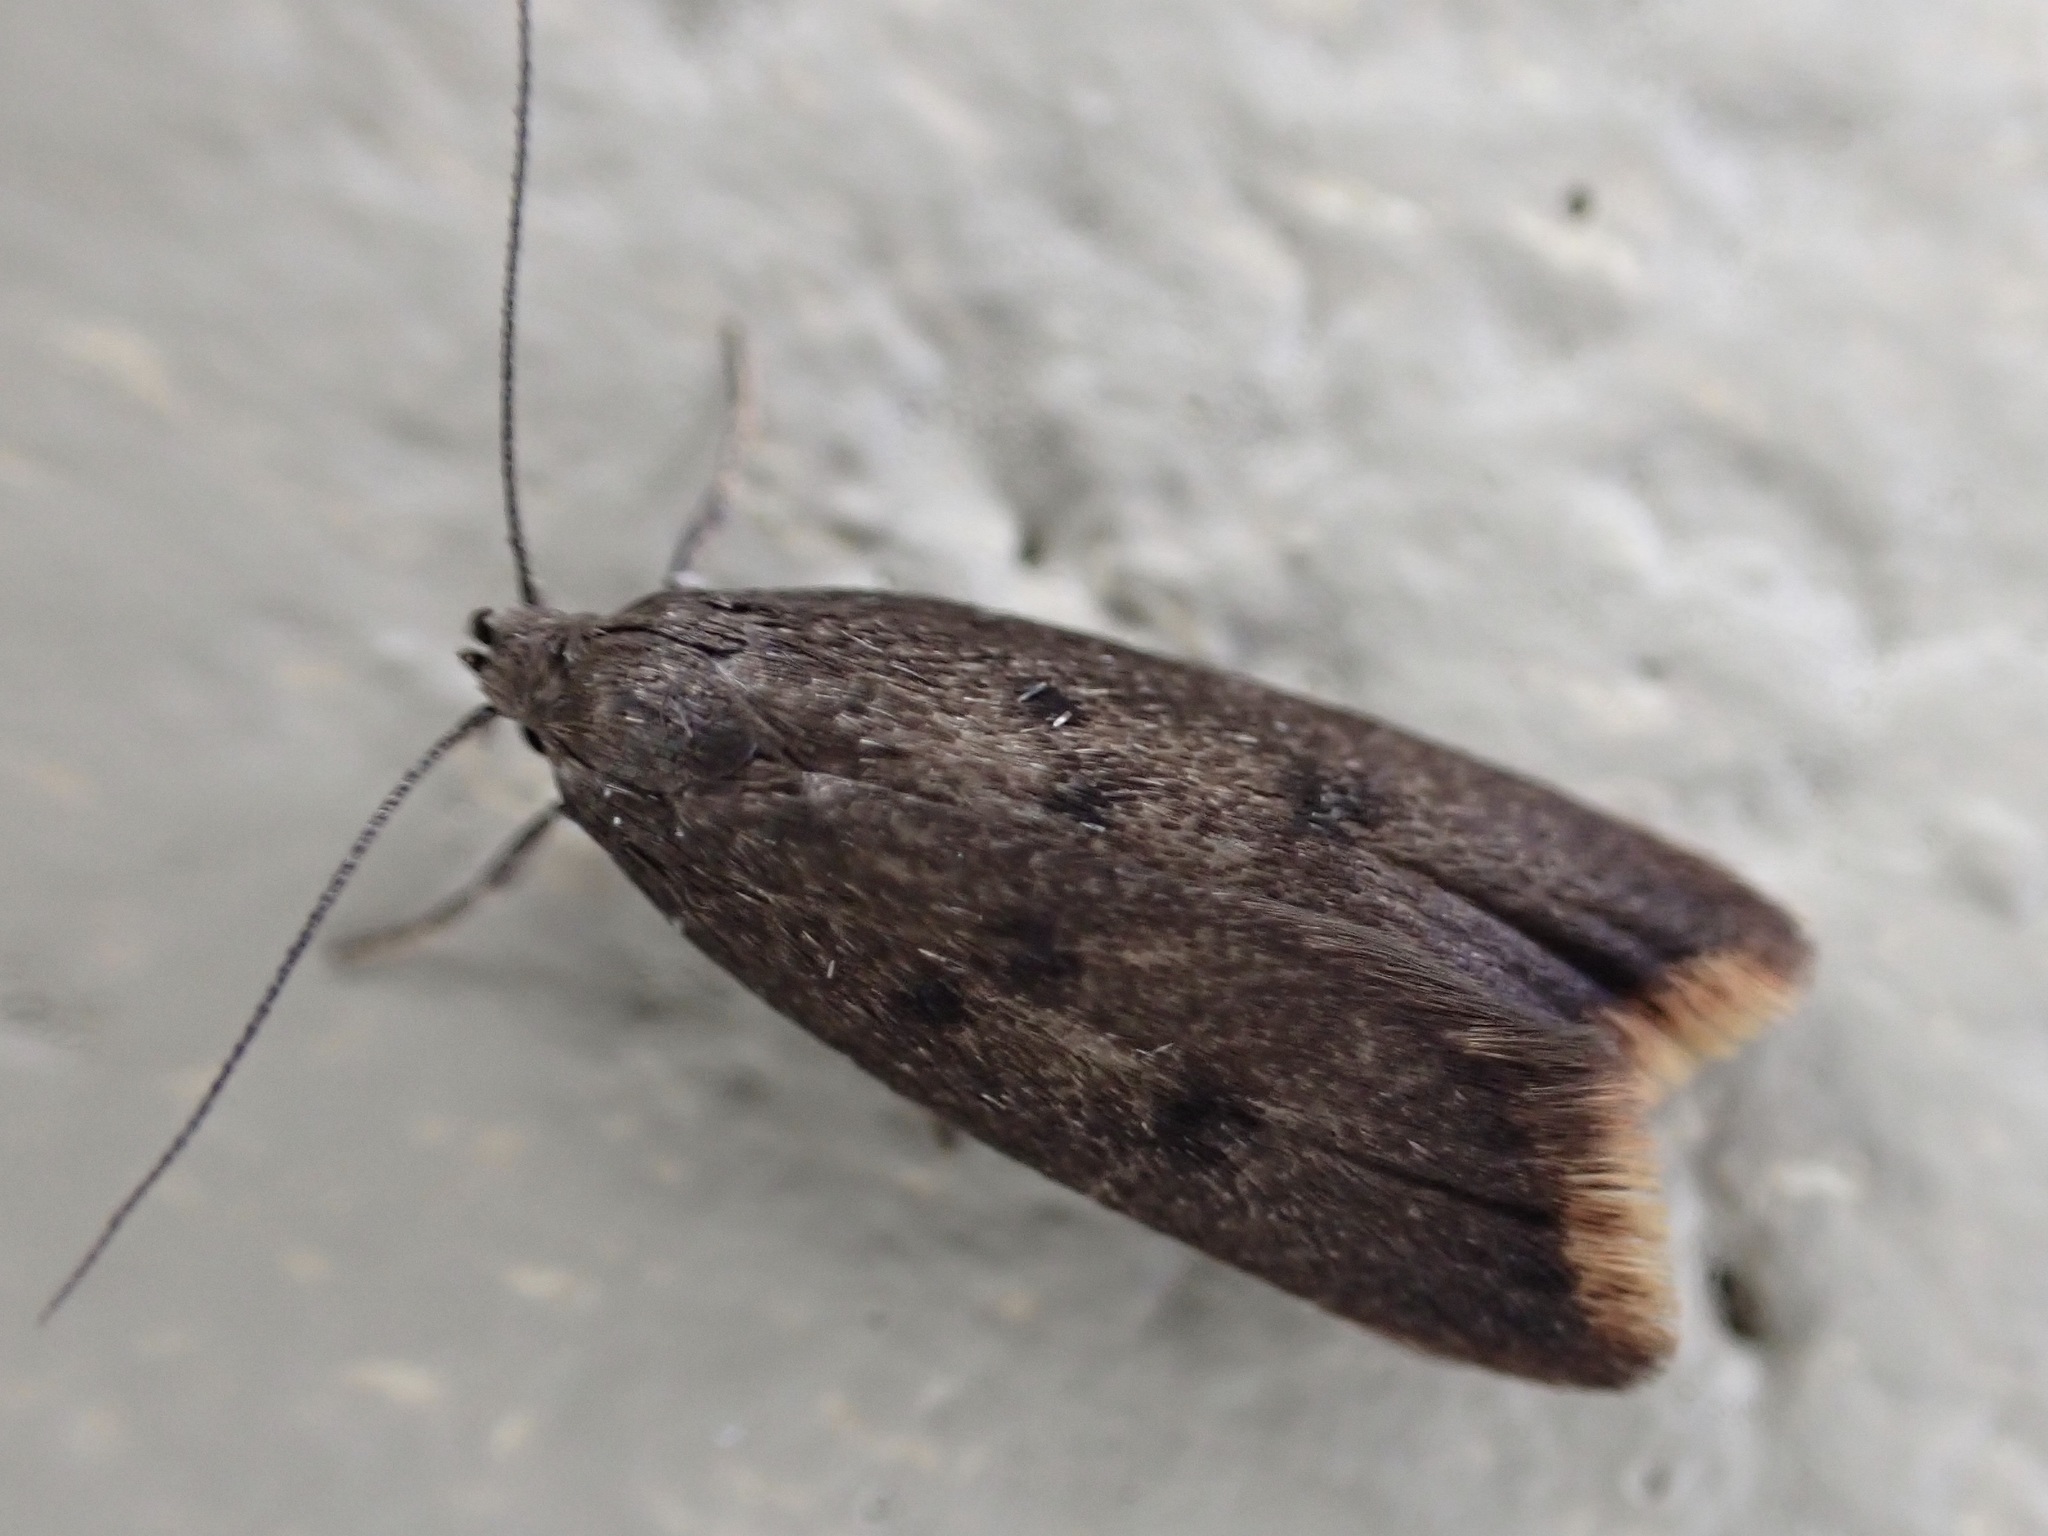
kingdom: Animalia
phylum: Arthropoda
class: Insecta
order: Lepidoptera
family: Oecophoridae
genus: Tachystola
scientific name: Tachystola acroxantha
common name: Ruddy streak
